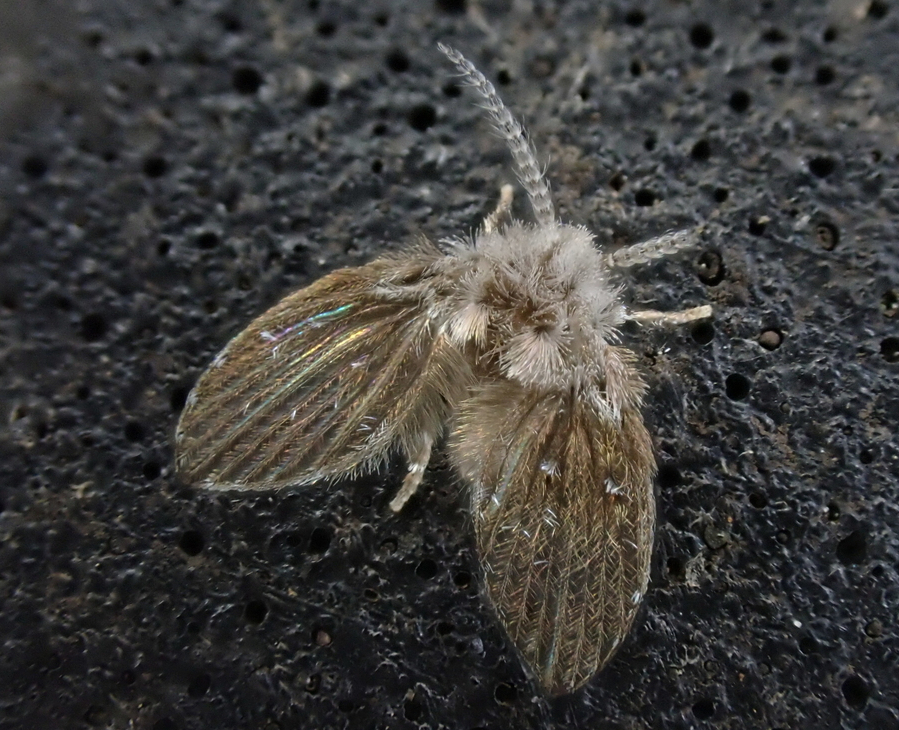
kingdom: Animalia
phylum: Arthropoda
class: Insecta
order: Diptera
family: Psychodidae
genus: Clogmia
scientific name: Clogmia albipunctatus
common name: White-spotted moth fly
